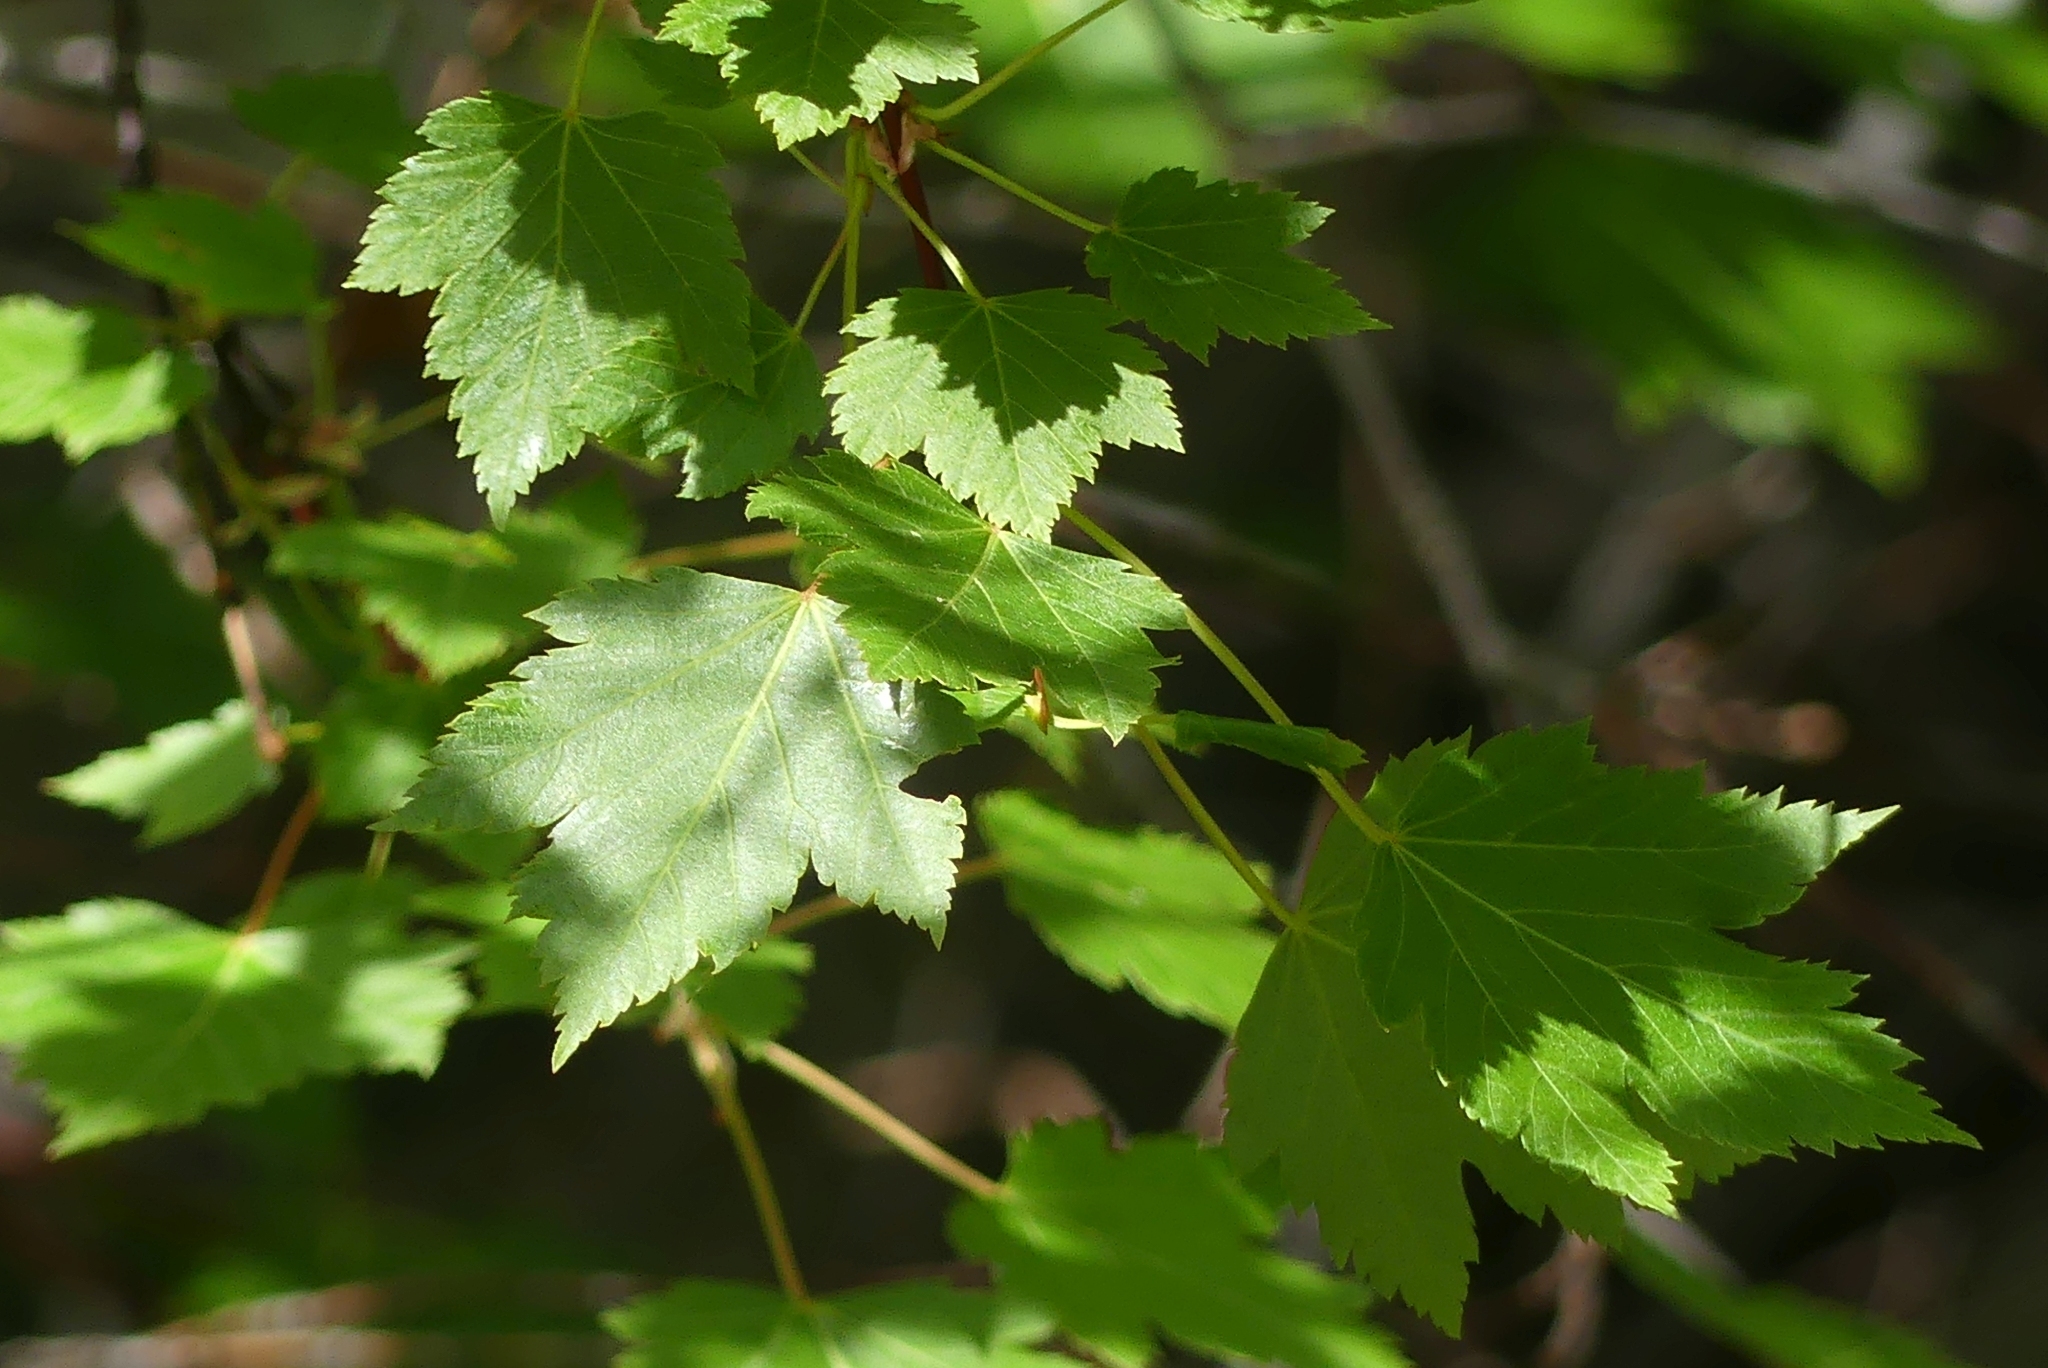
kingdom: Plantae
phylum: Tracheophyta
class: Magnoliopsida
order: Sapindales
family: Sapindaceae
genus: Acer
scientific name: Acer glabrum
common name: Rocky mountain maple
